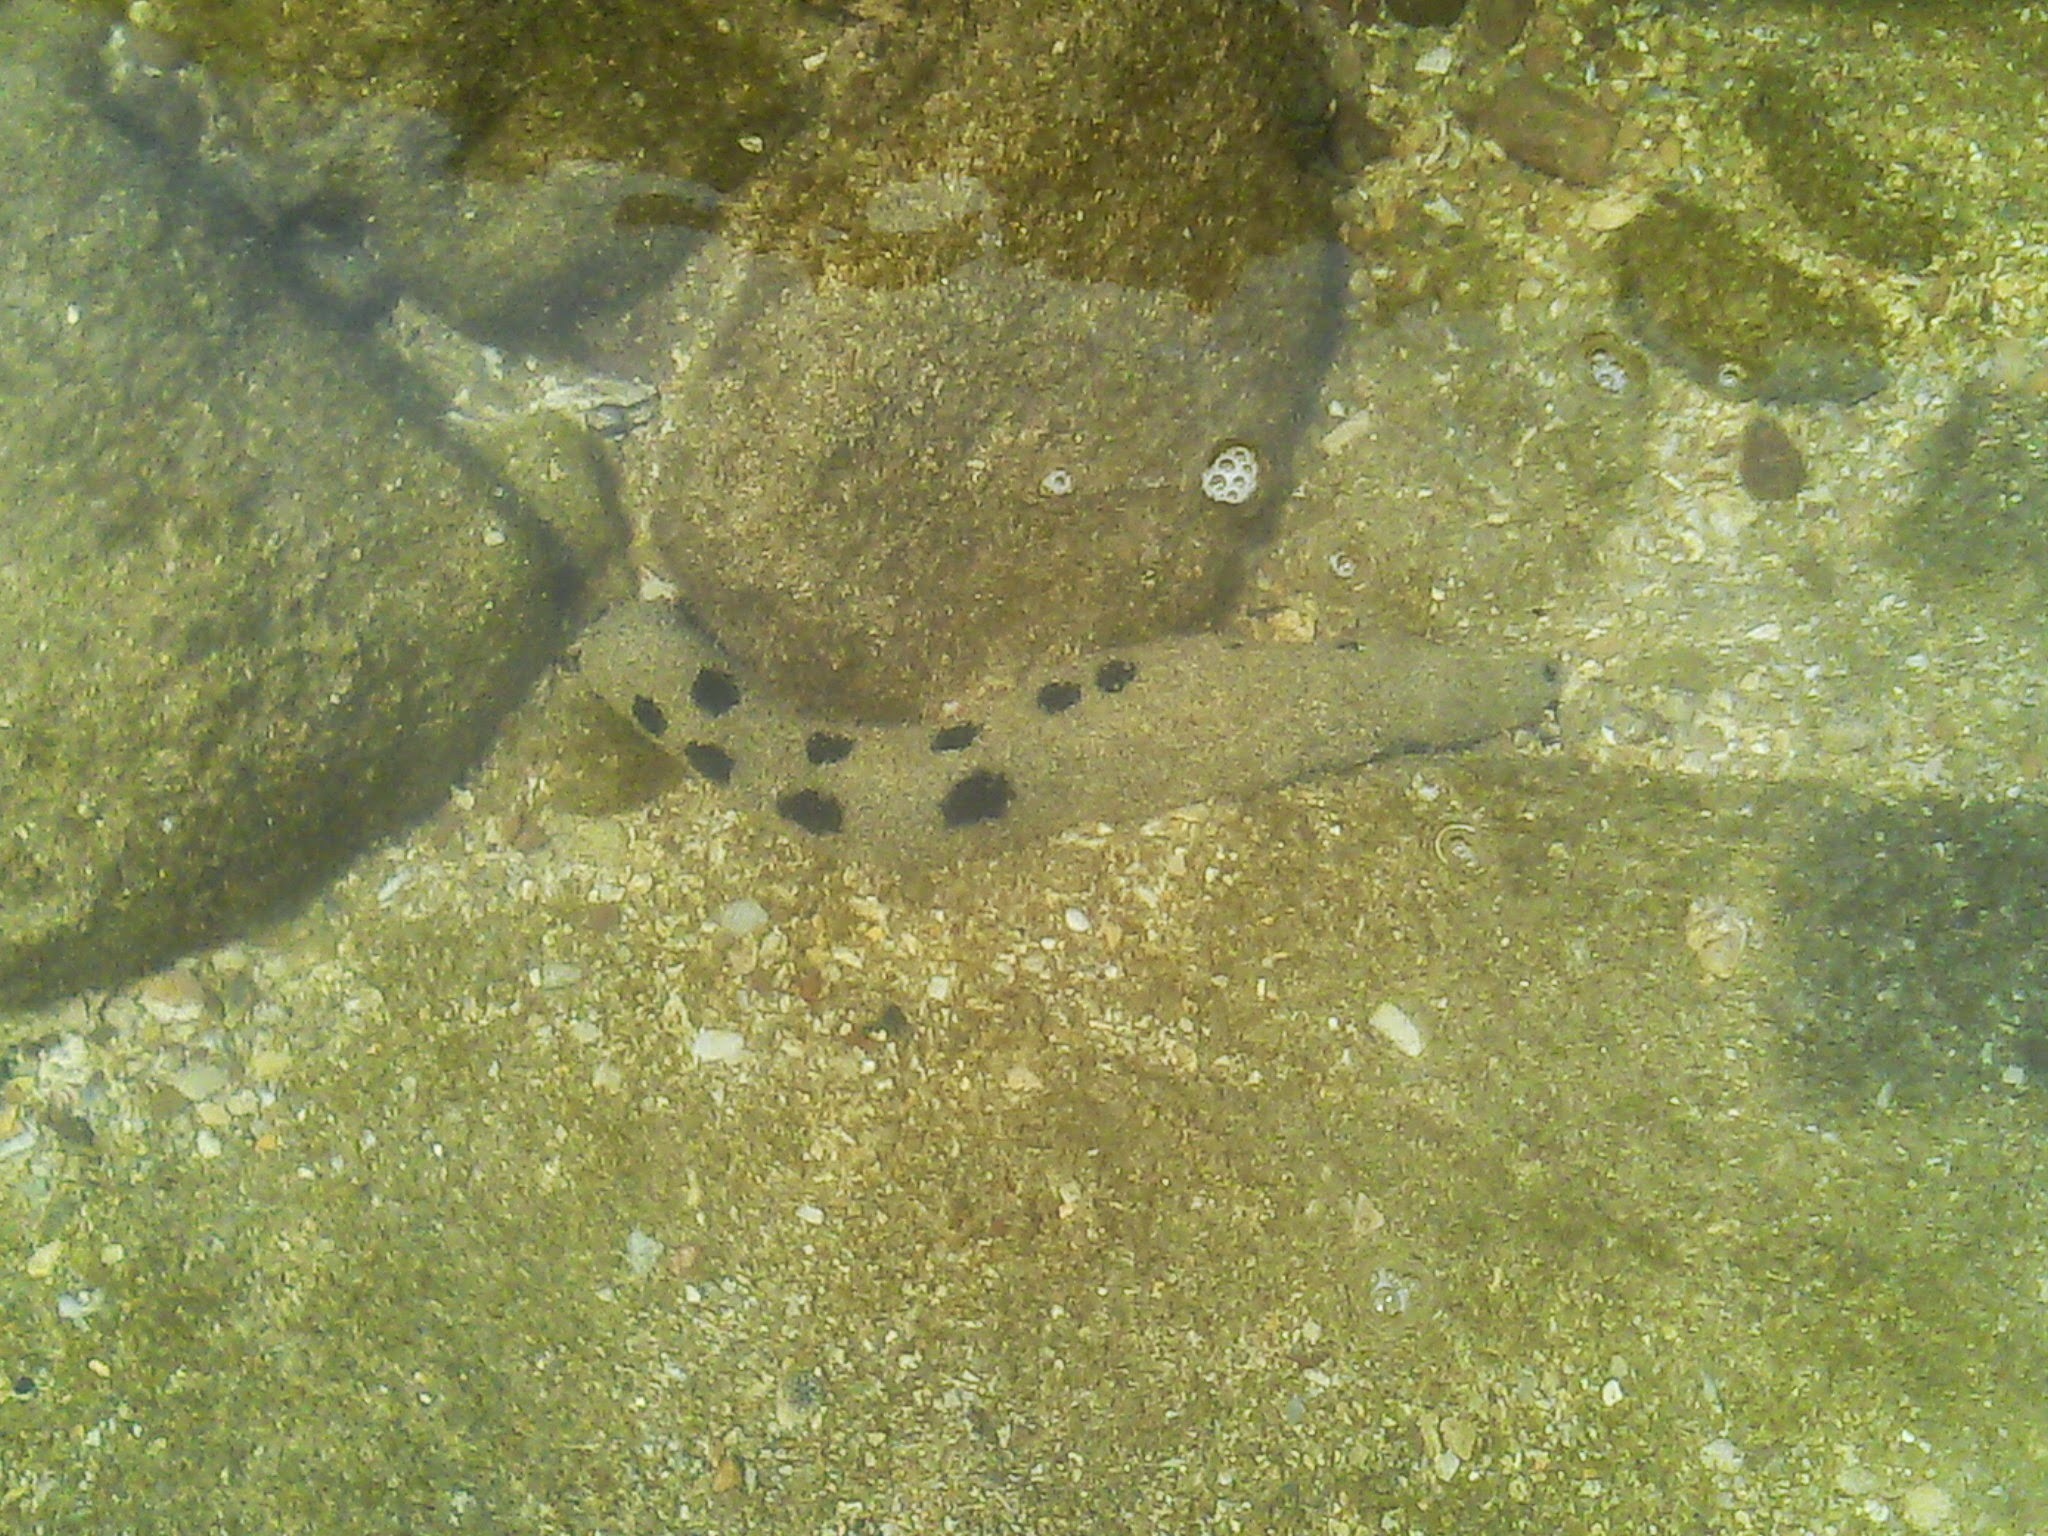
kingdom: Animalia
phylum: Echinodermata
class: Holothuroidea
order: Holothuriida
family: Holothuriidae
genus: Holothuria
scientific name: Holothuria atra
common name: Lollyfish
